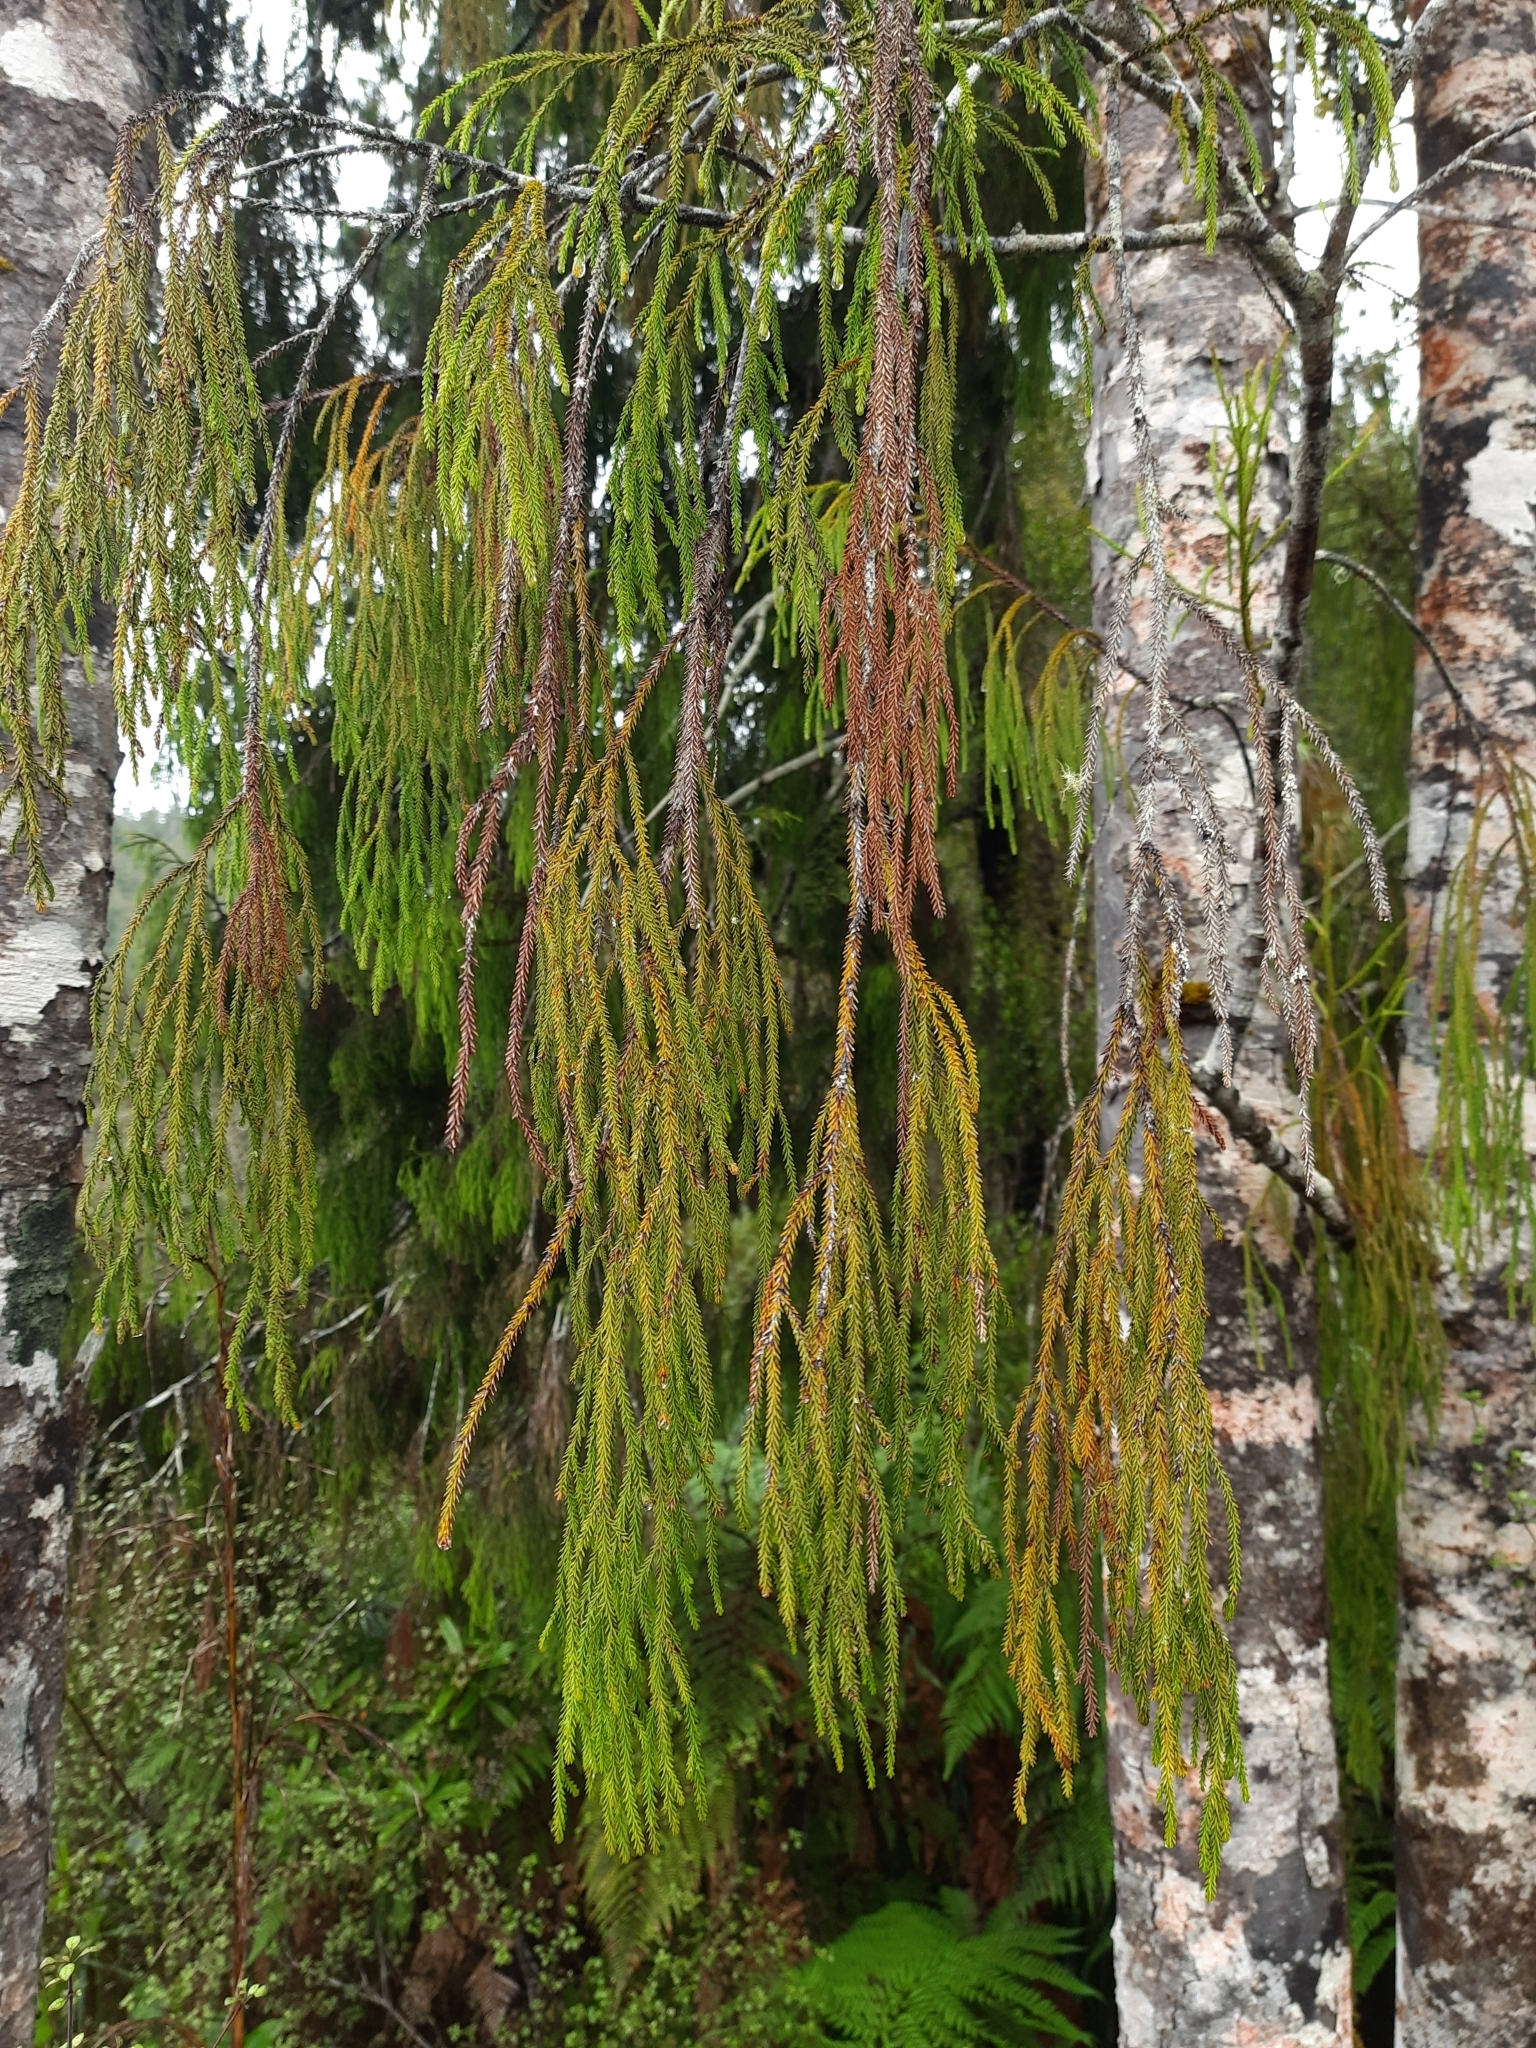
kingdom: Plantae
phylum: Tracheophyta
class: Pinopsida
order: Pinales
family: Podocarpaceae
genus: Dacrydium
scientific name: Dacrydium cupressinum
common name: Red pine
